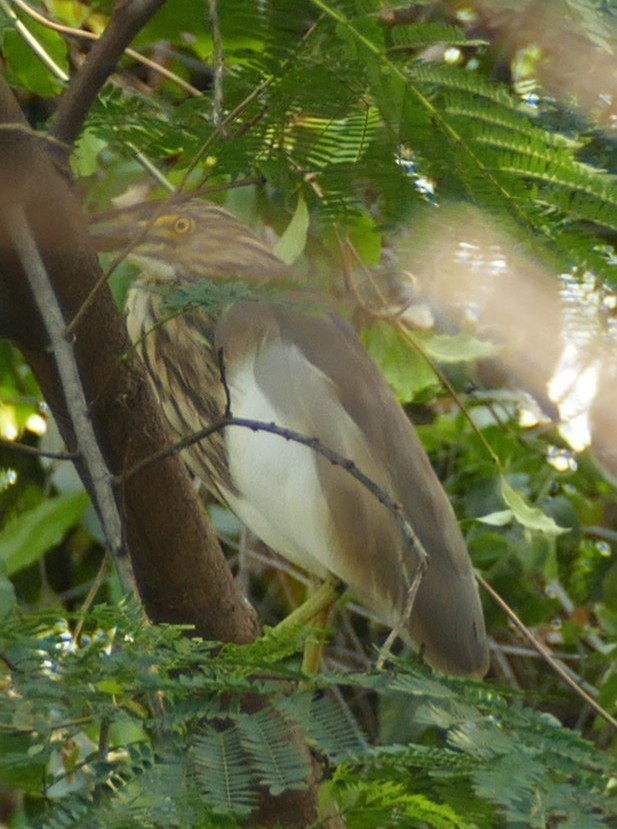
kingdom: Animalia
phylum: Chordata
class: Aves
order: Pelecaniformes
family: Ardeidae
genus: Ardeola
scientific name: Ardeola grayii
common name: Indian pond heron
